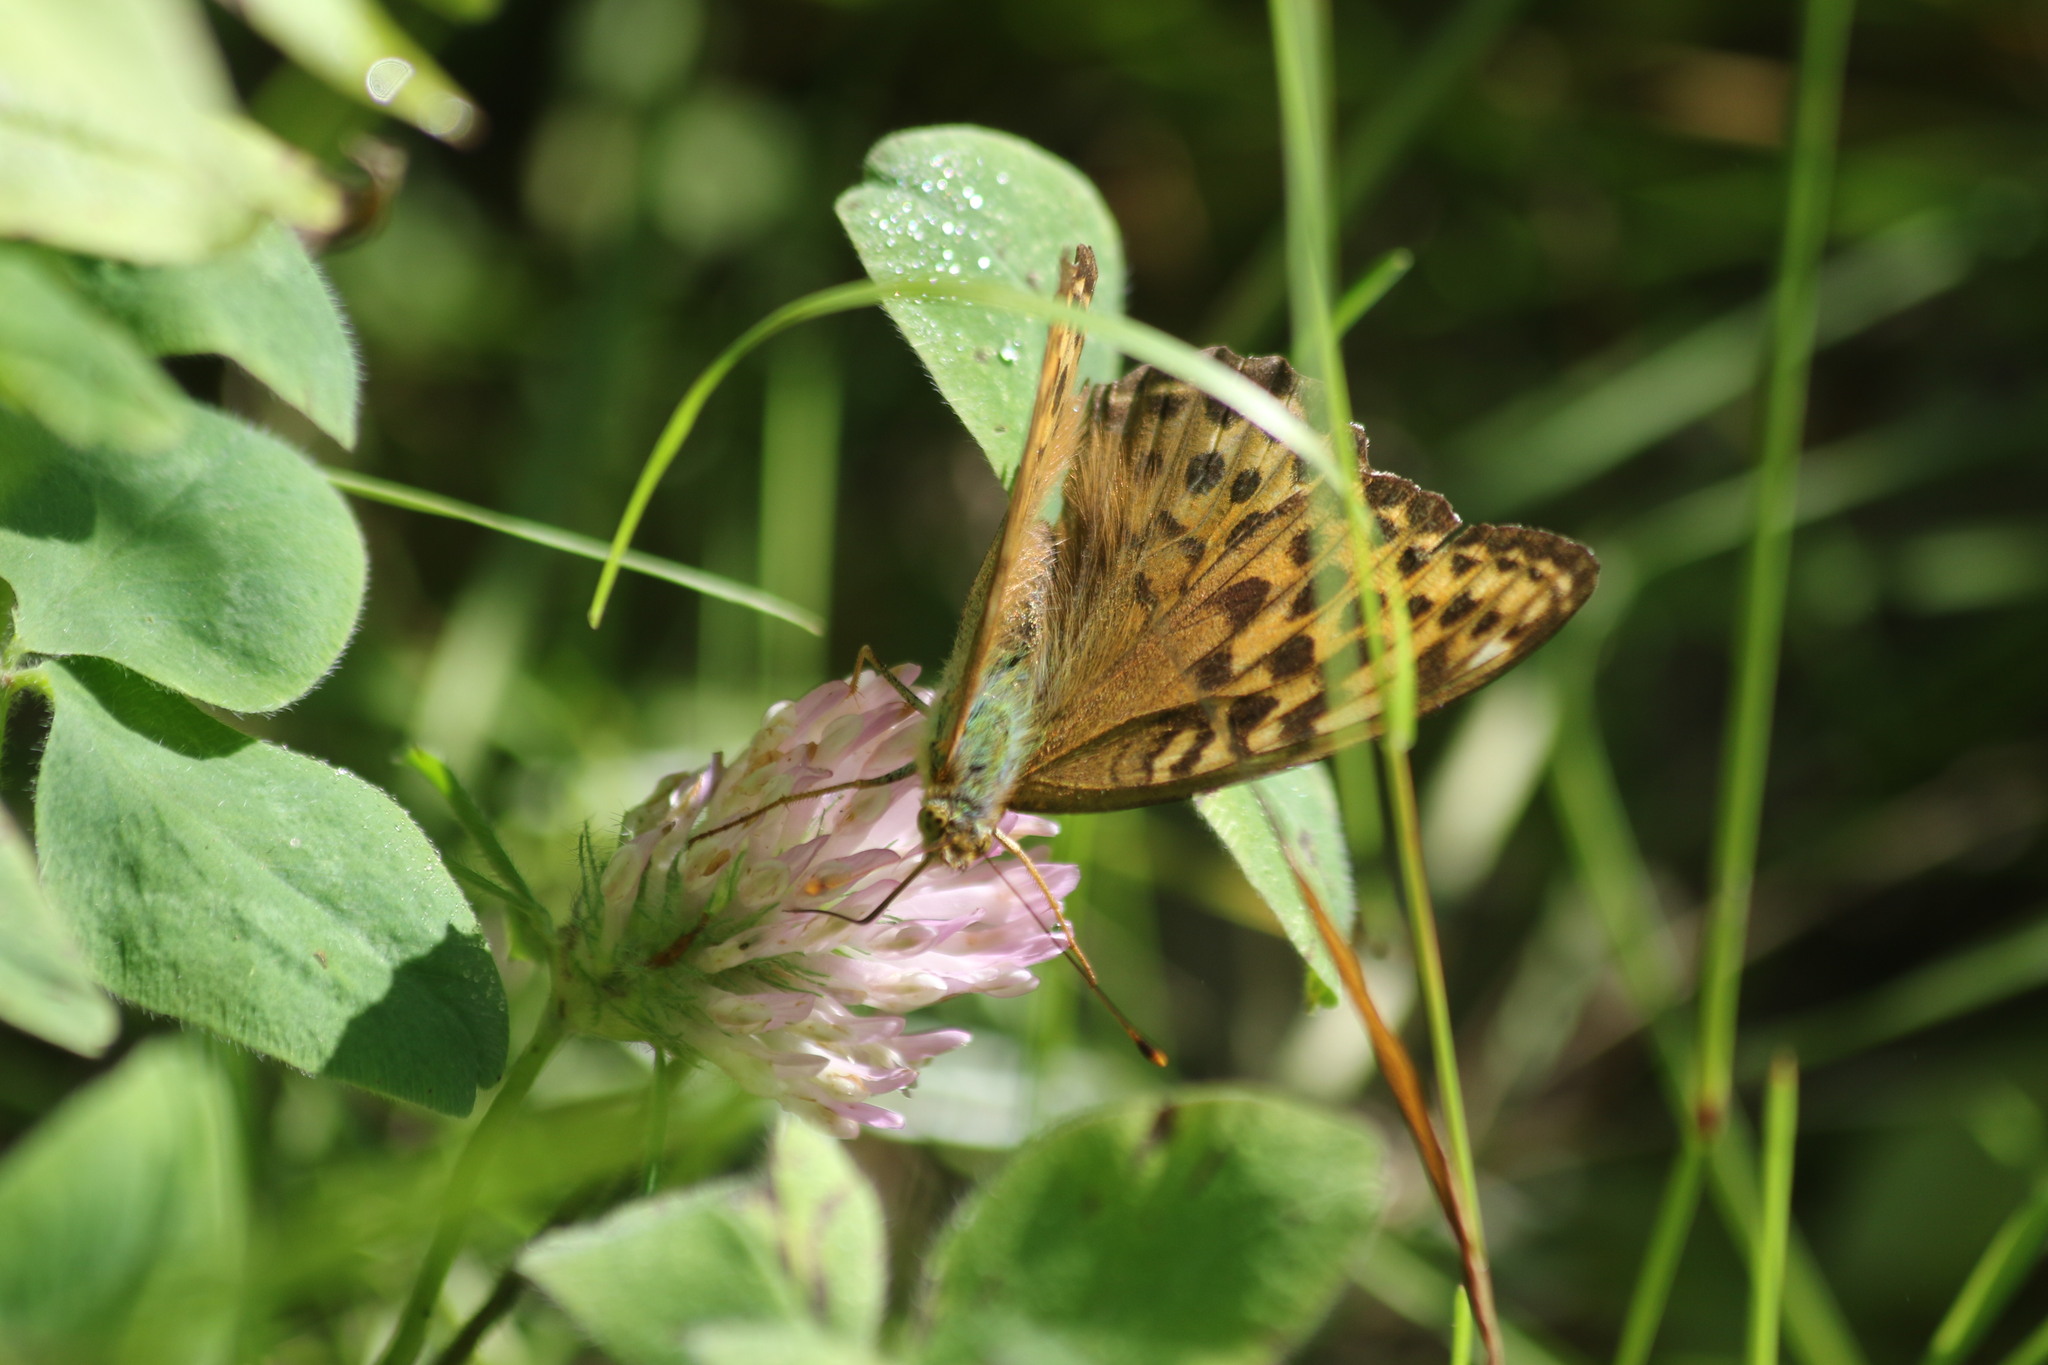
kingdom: Animalia
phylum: Arthropoda
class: Insecta
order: Lepidoptera
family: Nymphalidae
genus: Argynnis
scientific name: Argynnis paphia
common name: Silver-washed fritillary
